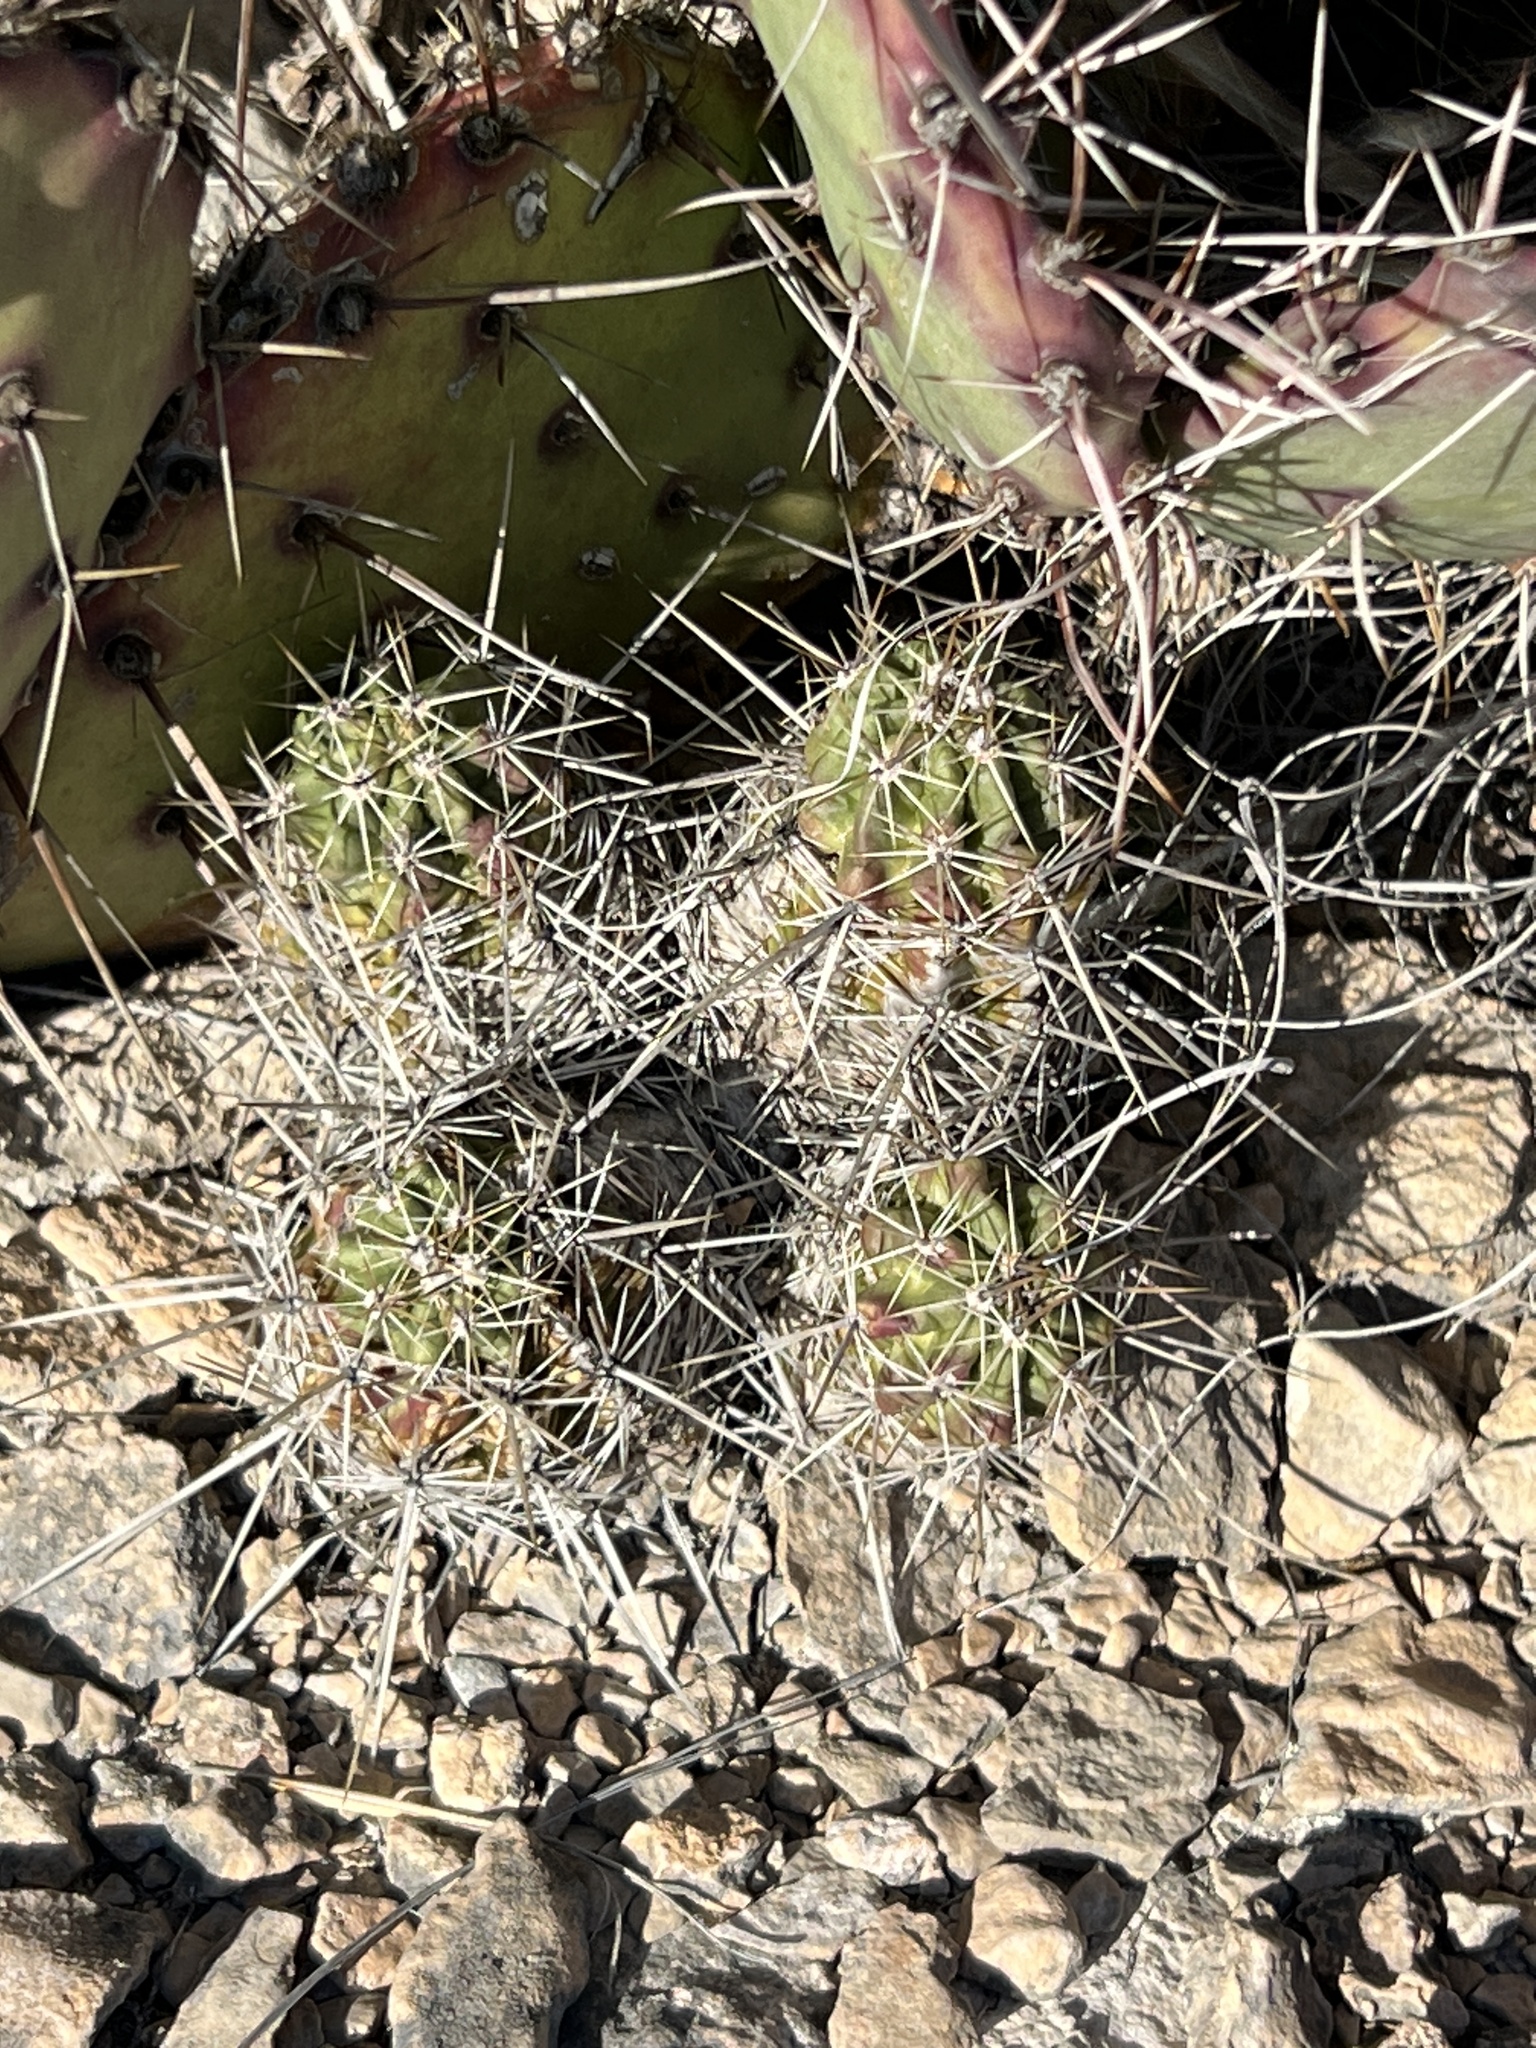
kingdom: Plantae
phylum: Tracheophyta
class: Magnoliopsida
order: Caryophyllales
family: Cactaceae
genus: Echinocereus
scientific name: Echinocereus enneacanthus
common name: Pitaya
